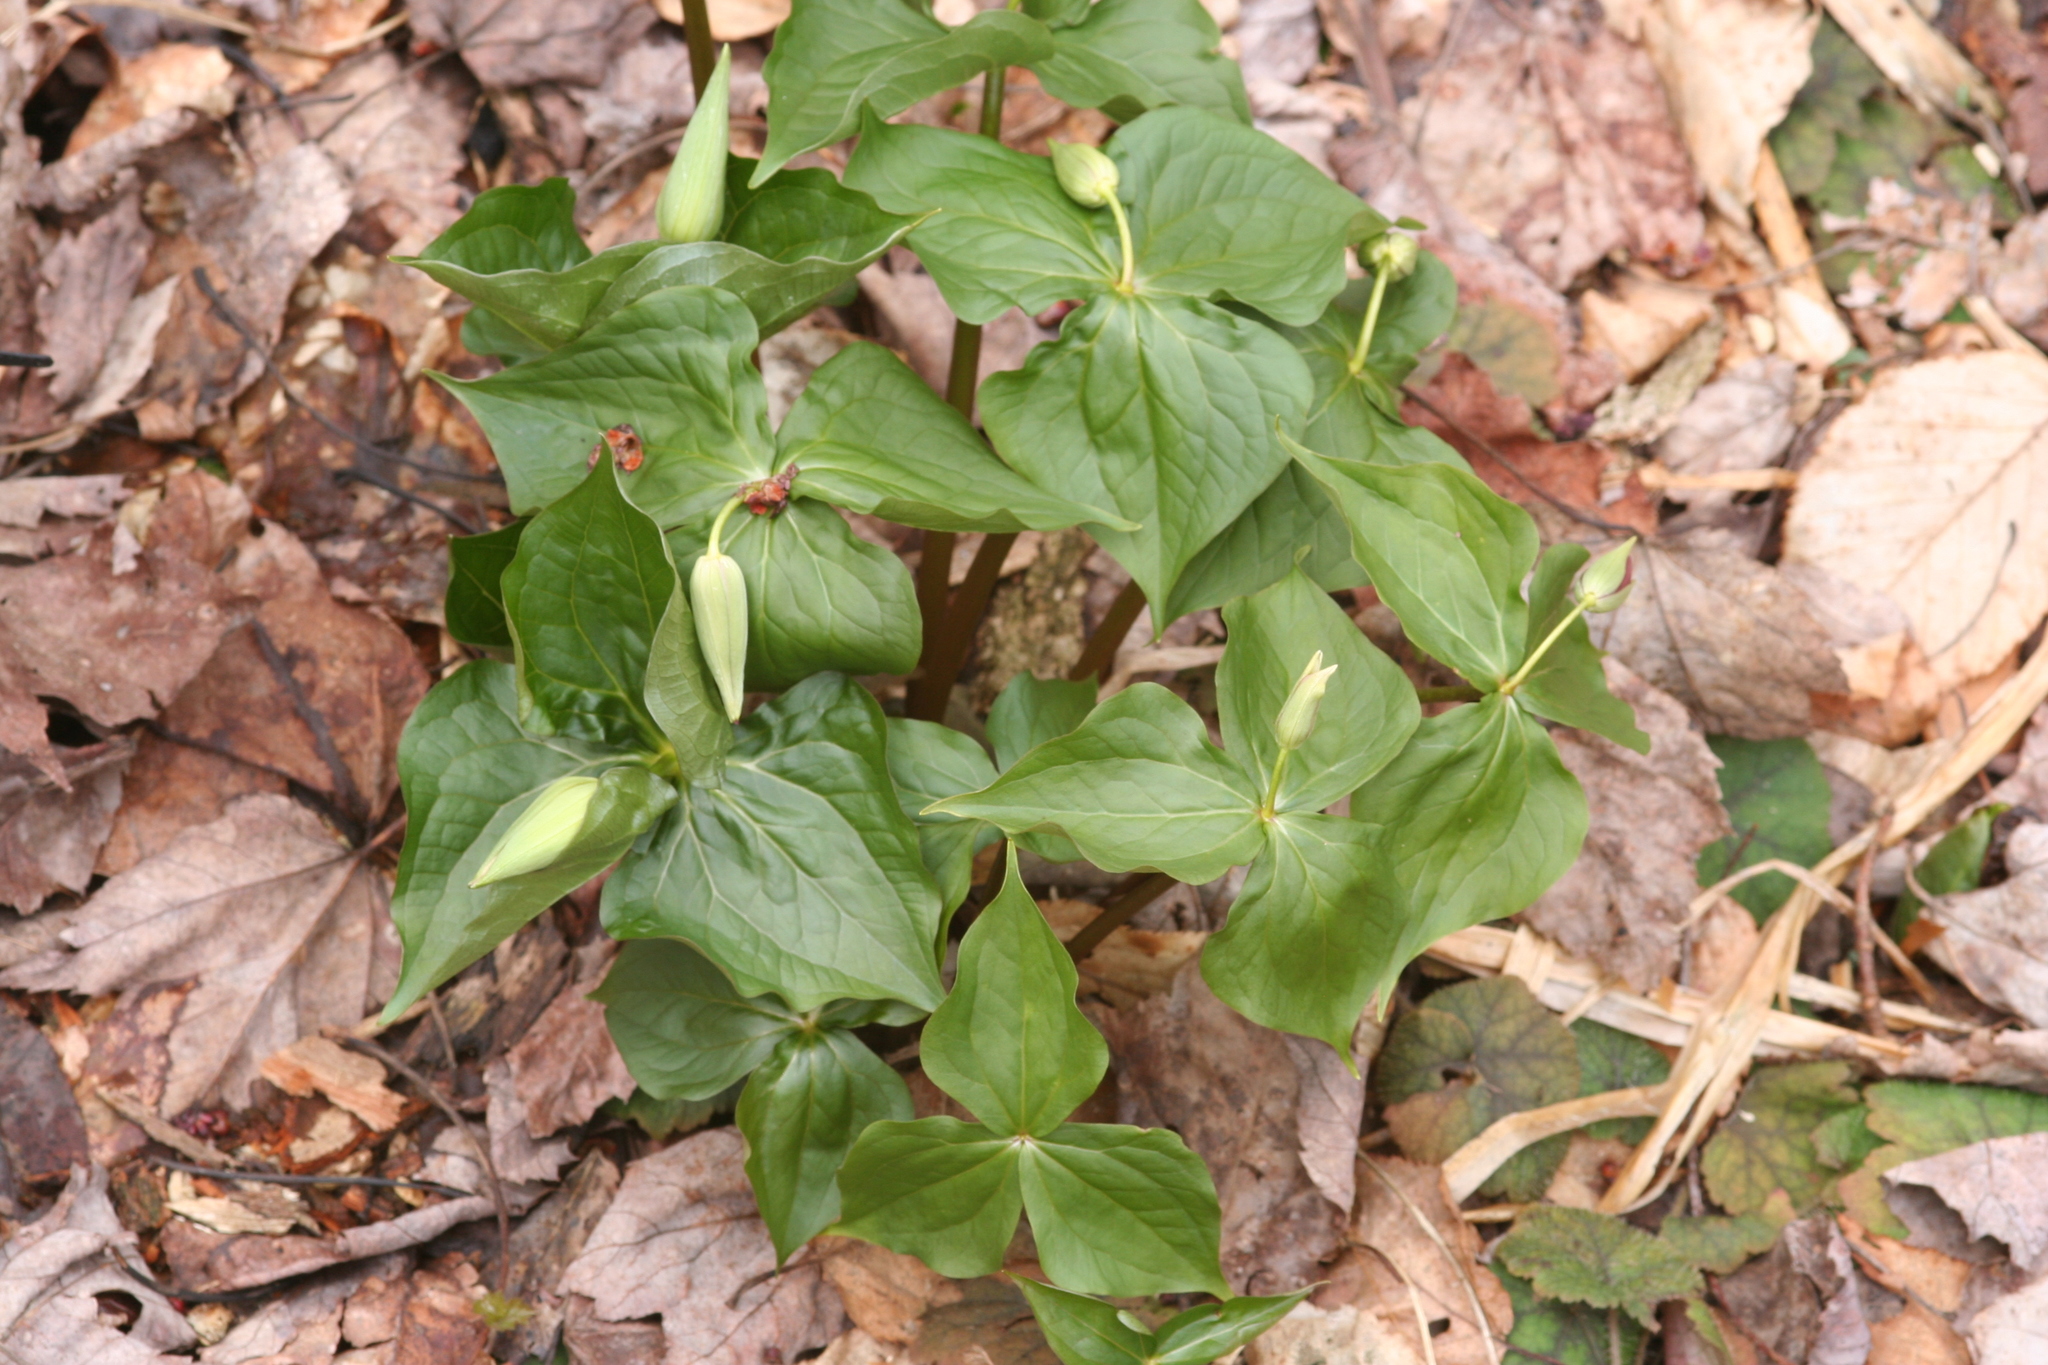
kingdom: Plantae
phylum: Tracheophyta
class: Liliopsida
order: Liliales
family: Melanthiaceae
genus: Trillium
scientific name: Trillium erectum
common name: Purple trillium
